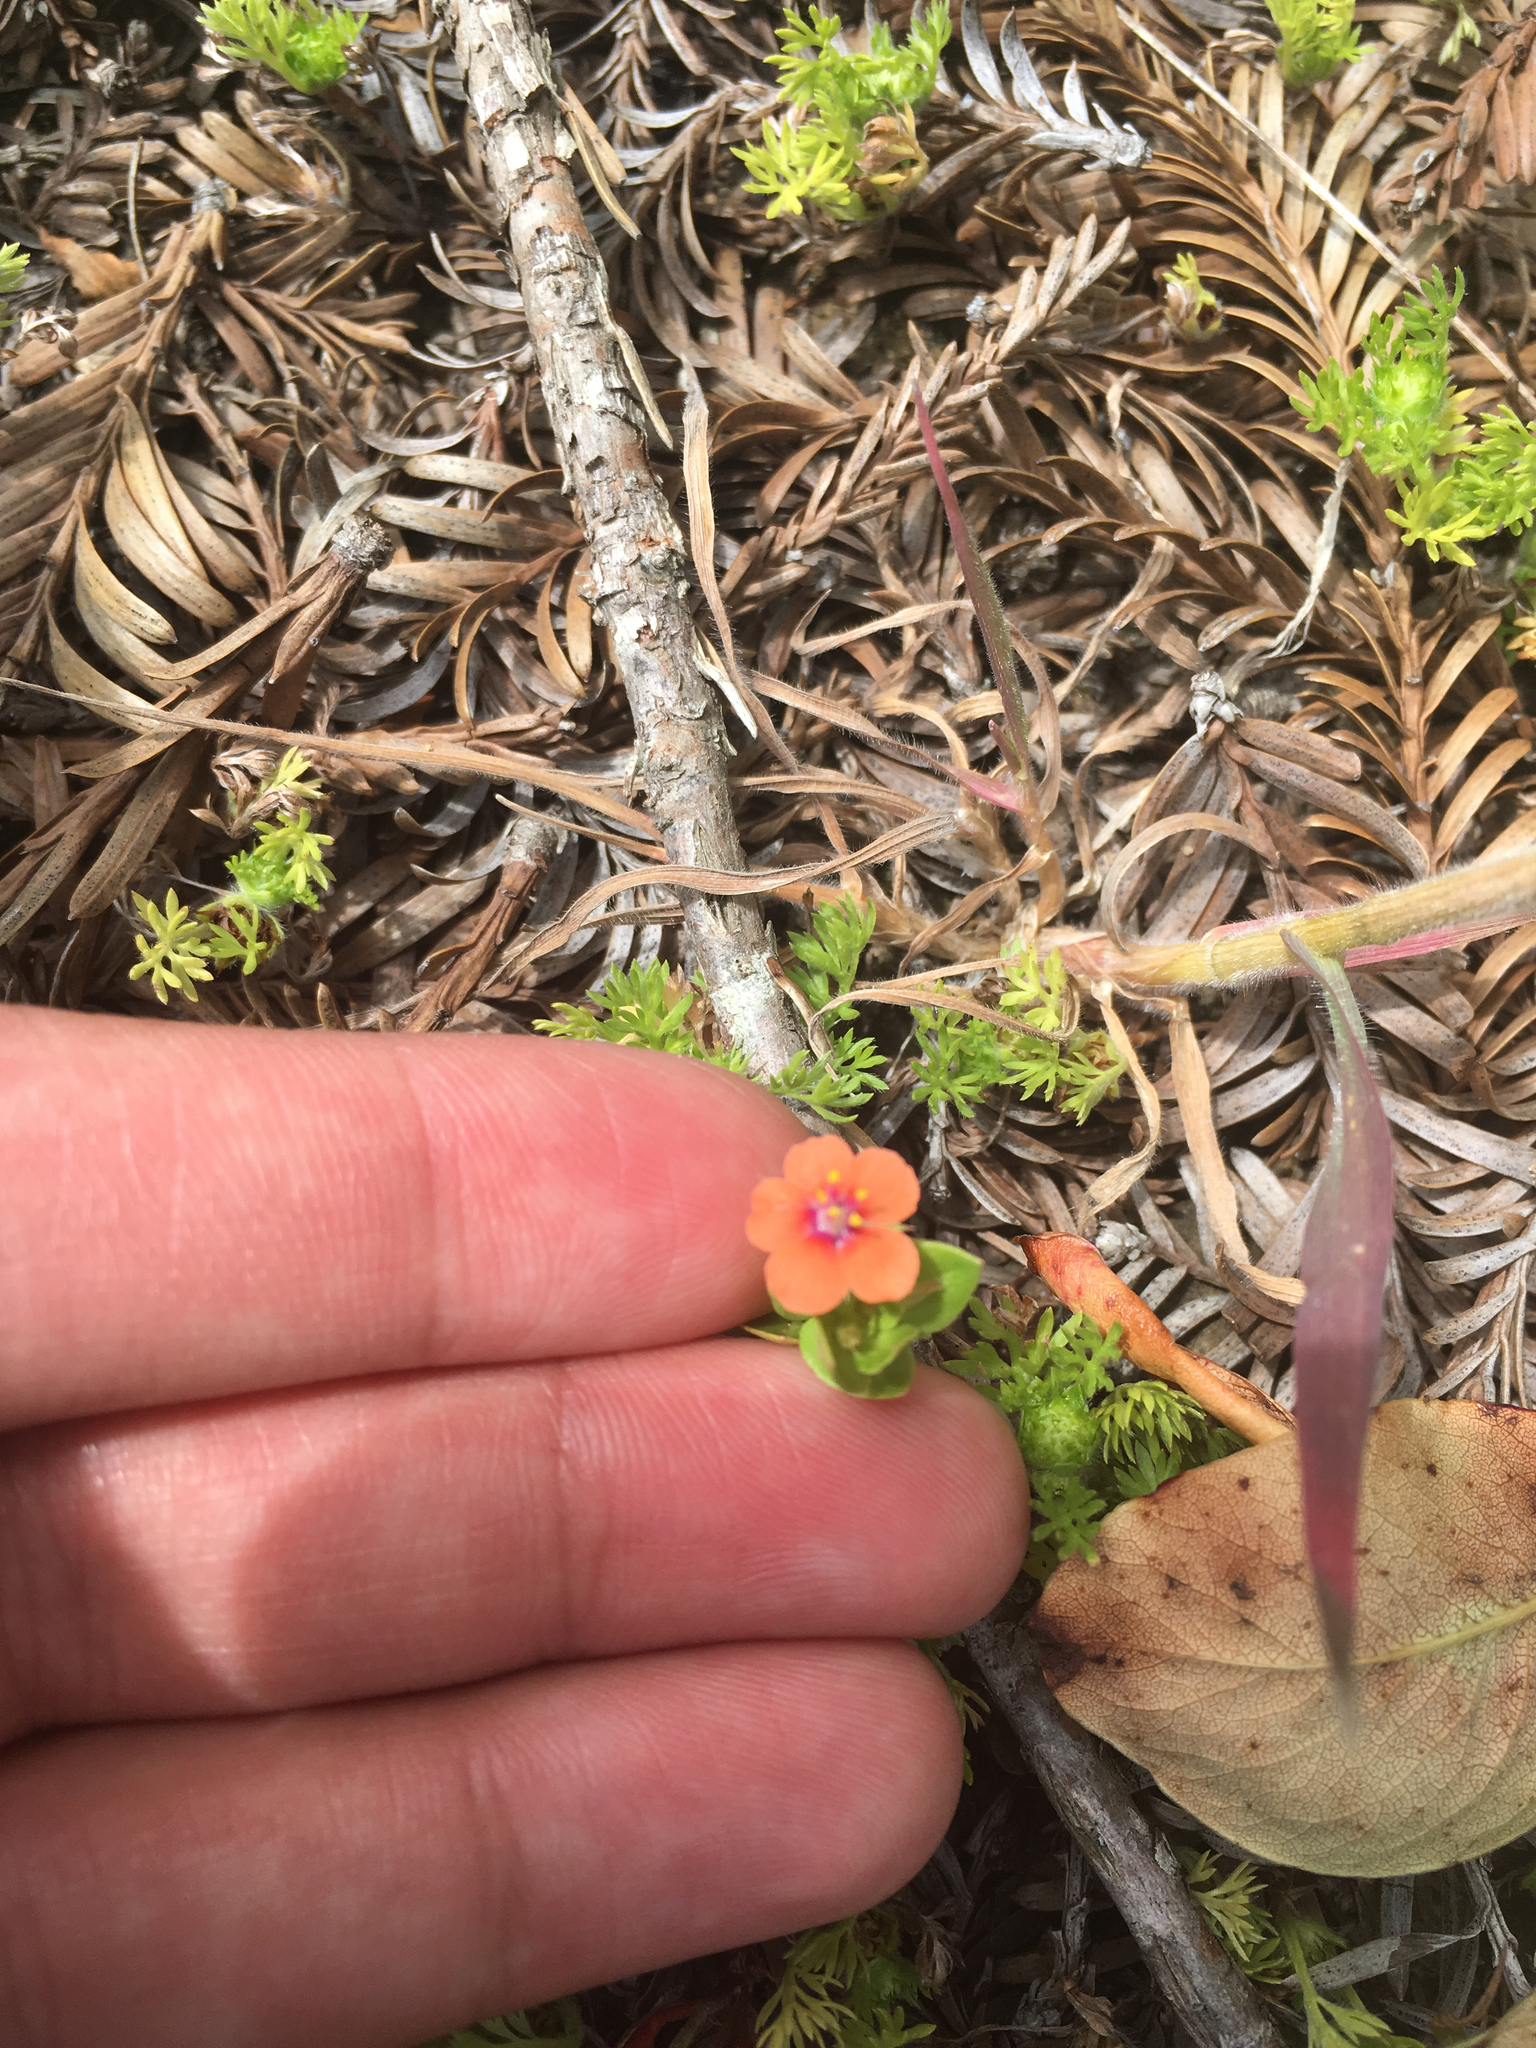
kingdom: Plantae
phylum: Tracheophyta
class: Magnoliopsida
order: Ericales
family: Primulaceae
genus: Lysimachia
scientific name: Lysimachia arvensis
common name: Scarlet pimpernel
